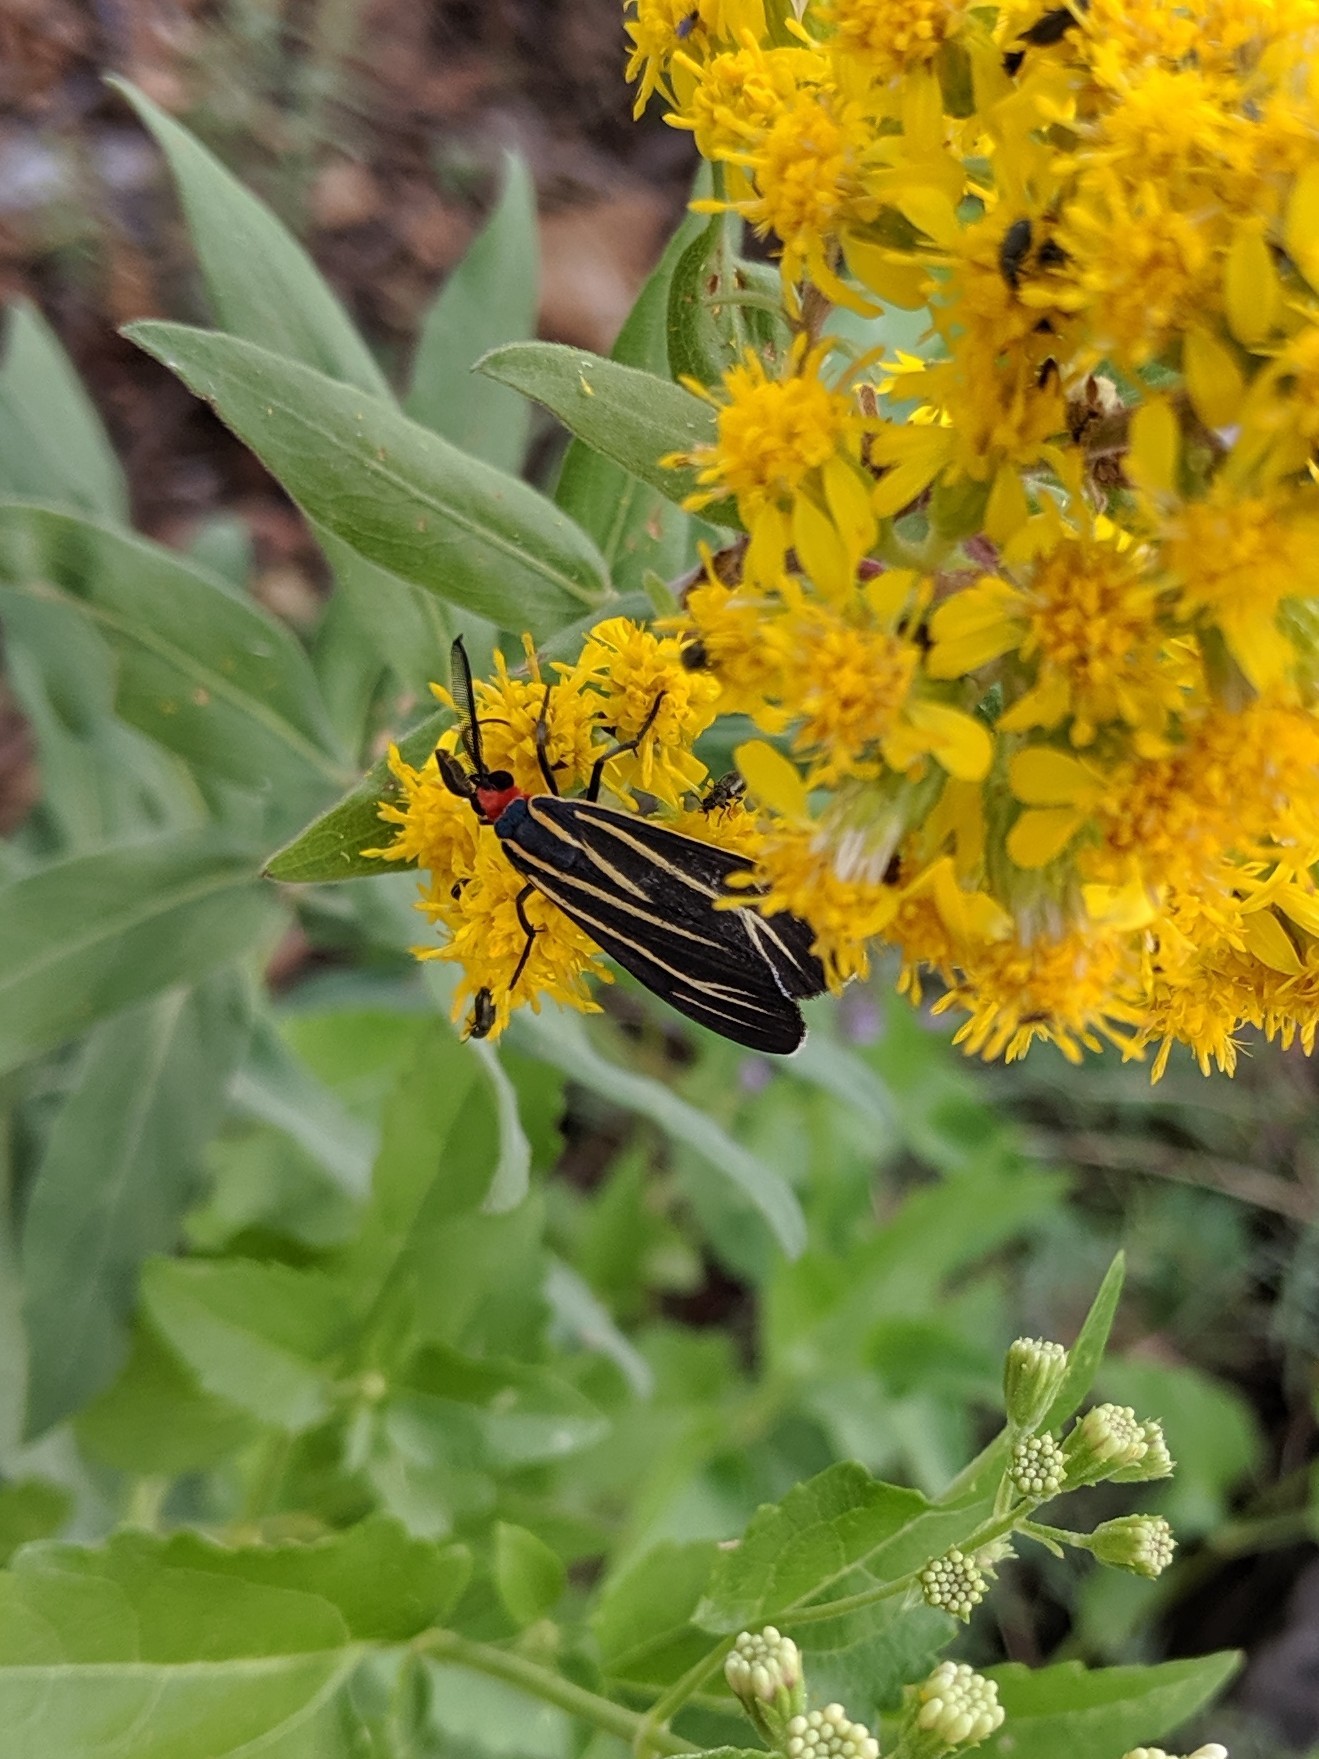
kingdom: Animalia
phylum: Arthropoda
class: Insecta
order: Lepidoptera
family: Erebidae
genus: Ctenucha
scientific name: Ctenucha venosa
